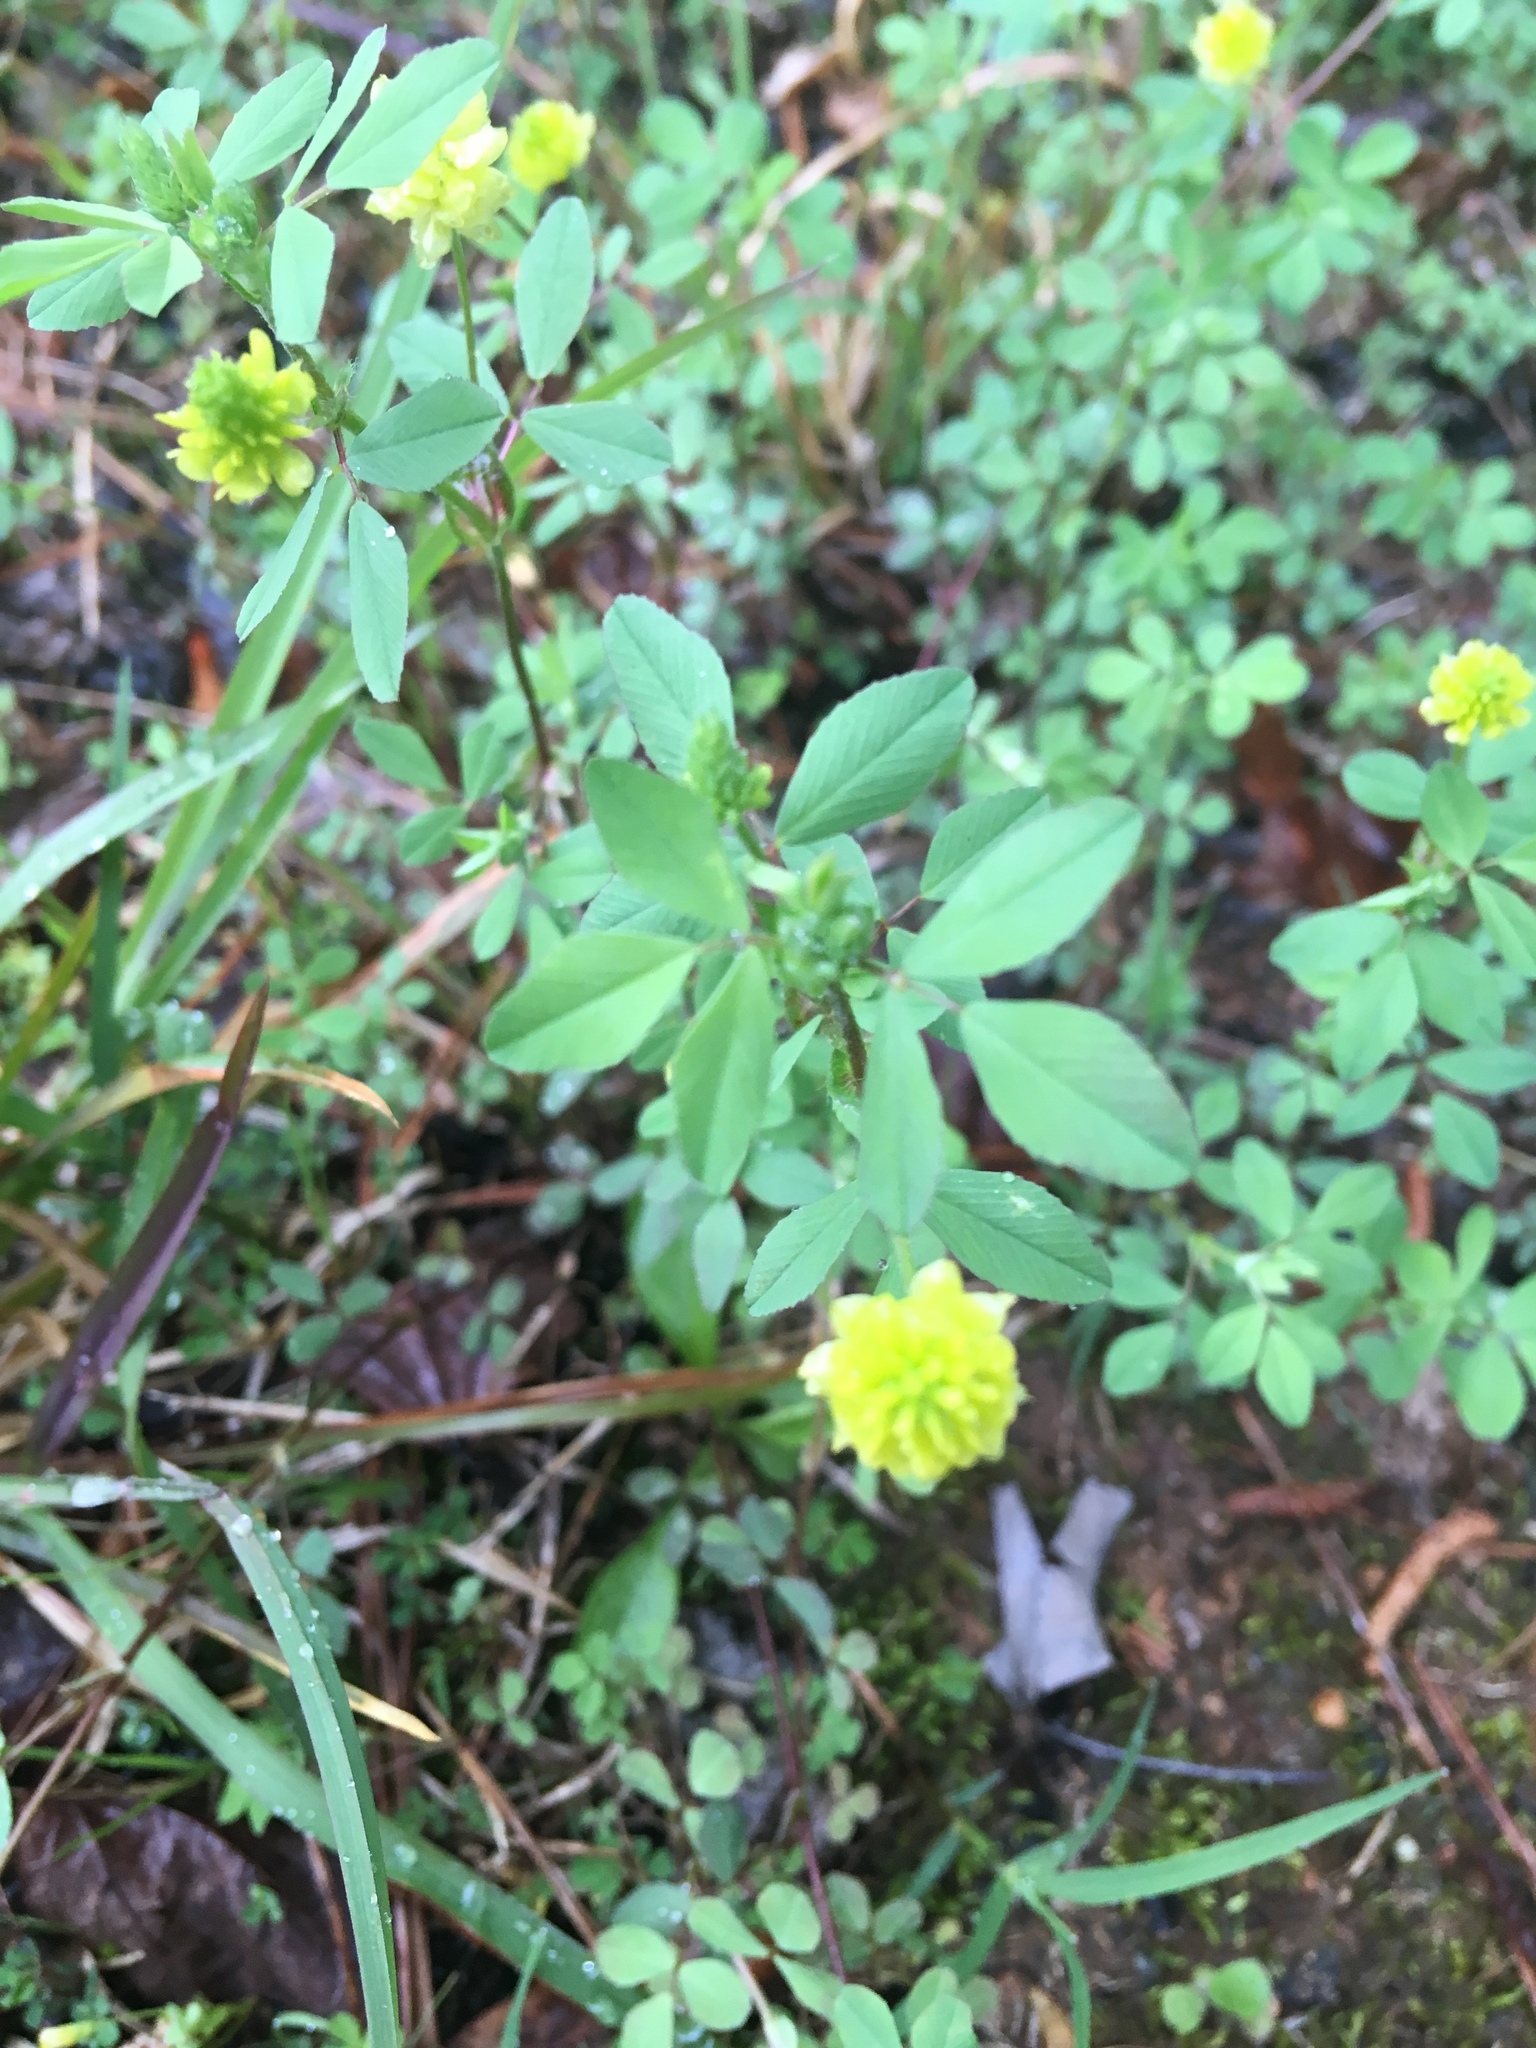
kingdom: Plantae
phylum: Tracheophyta
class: Magnoliopsida
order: Fabales
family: Fabaceae
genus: Trifolium
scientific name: Trifolium campestre
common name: Field clover
